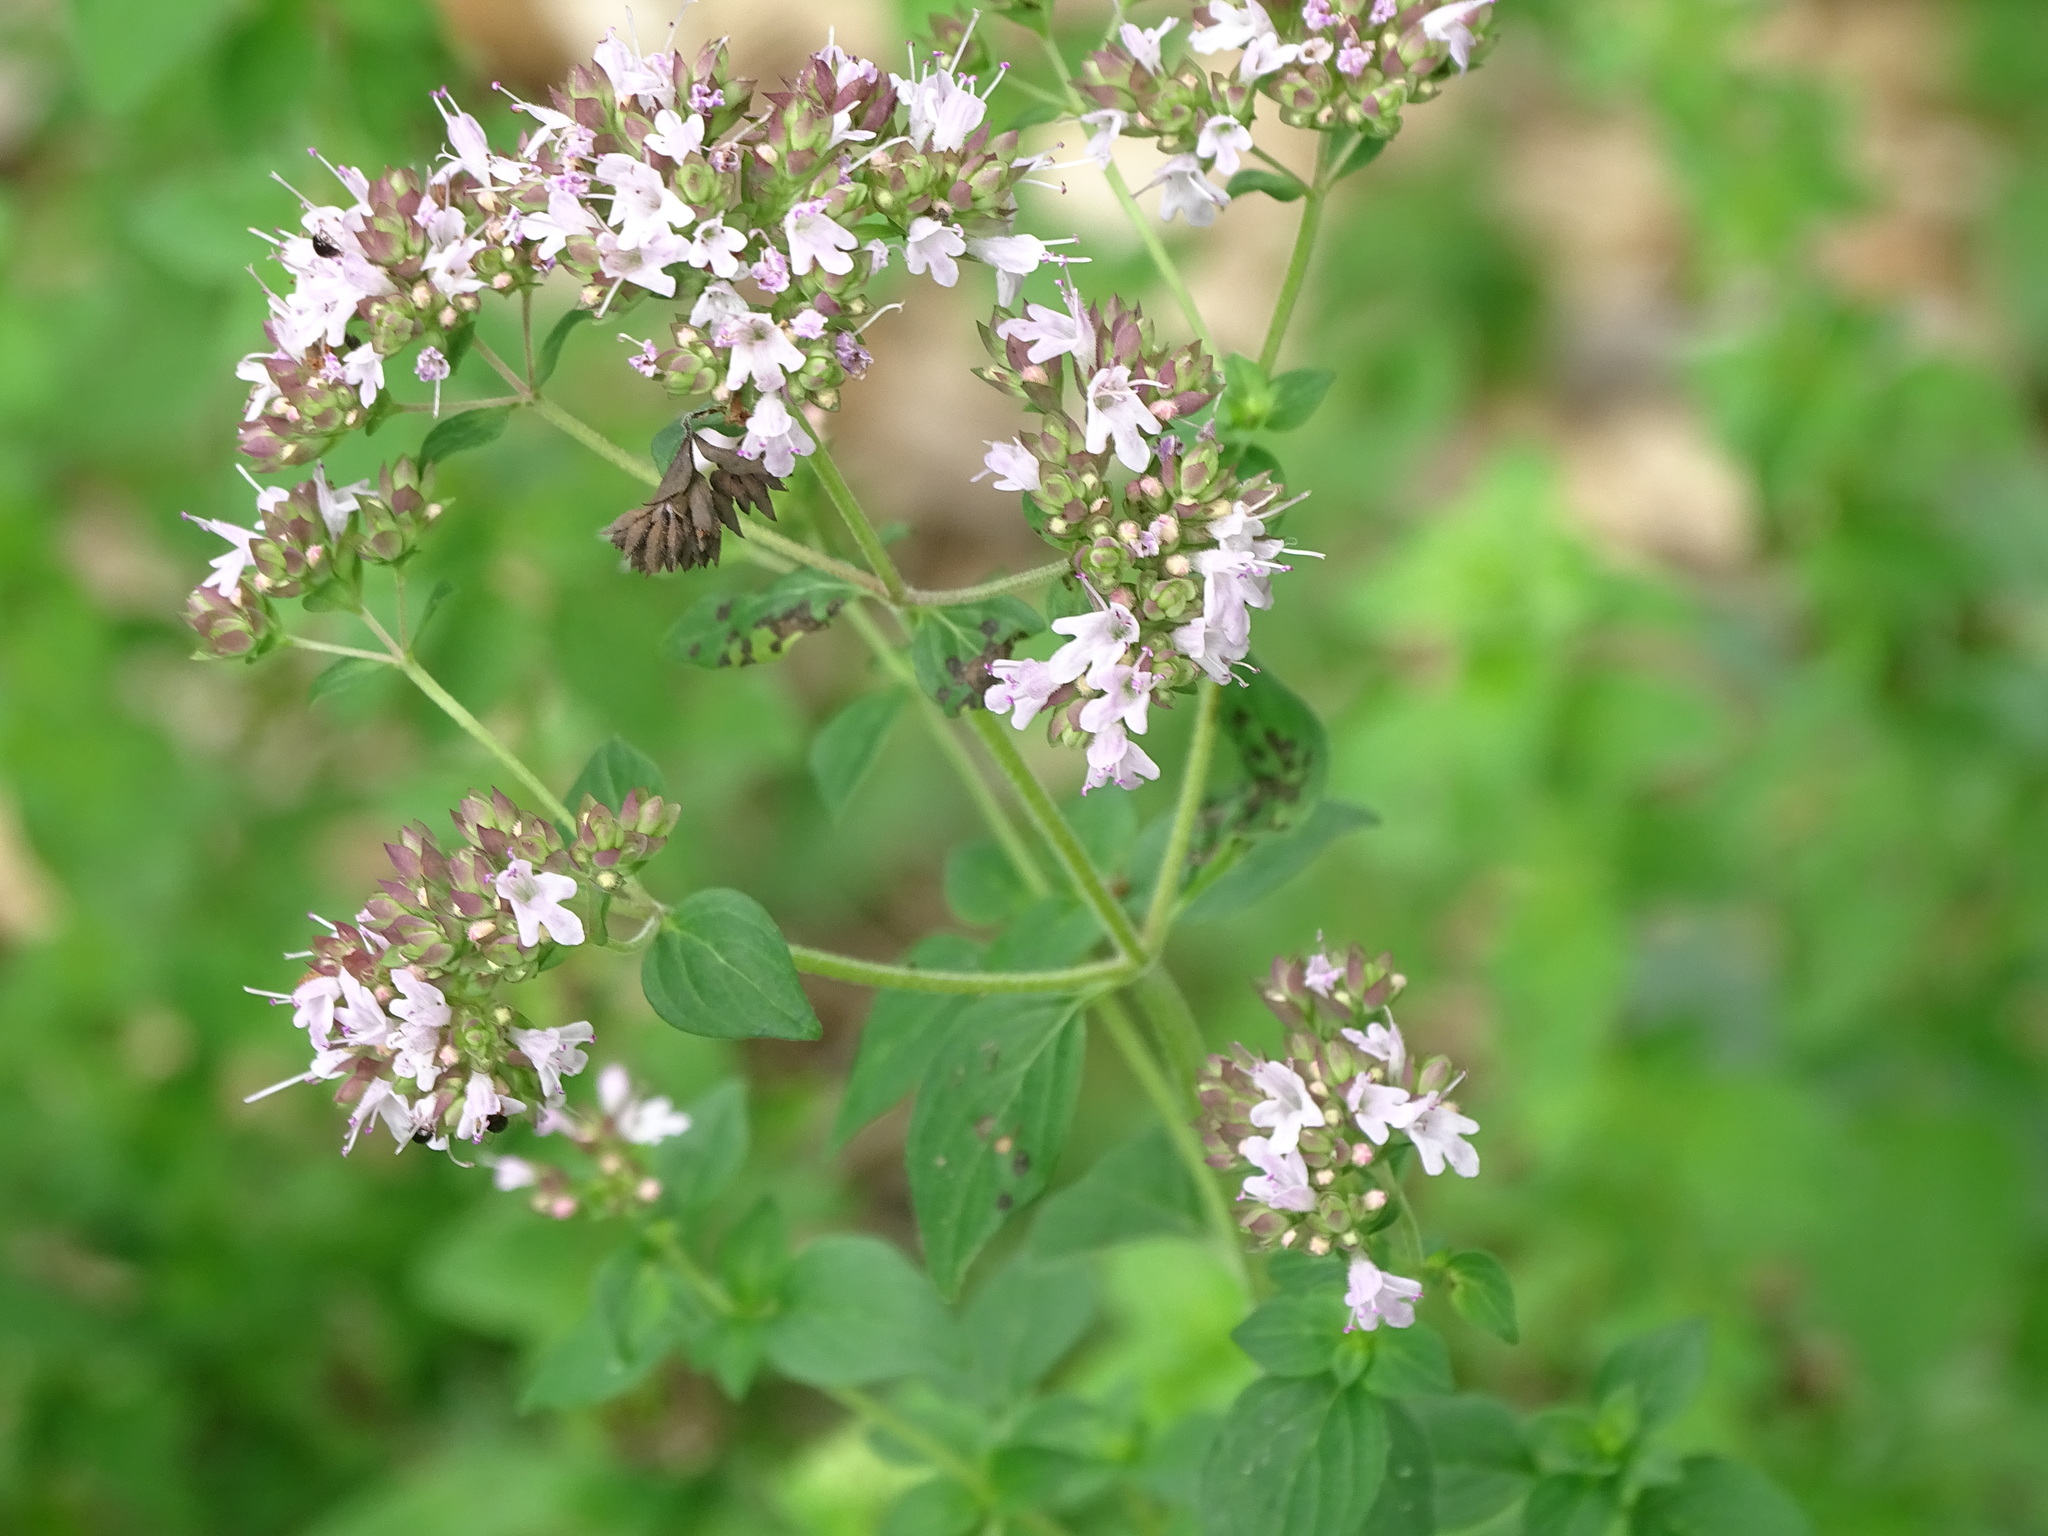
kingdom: Plantae
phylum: Tracheophyta
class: Magnoliopsida
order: Lamiales
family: Lamiaceae
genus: Origanum
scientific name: Origanum vulgare
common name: Wild marjoram
